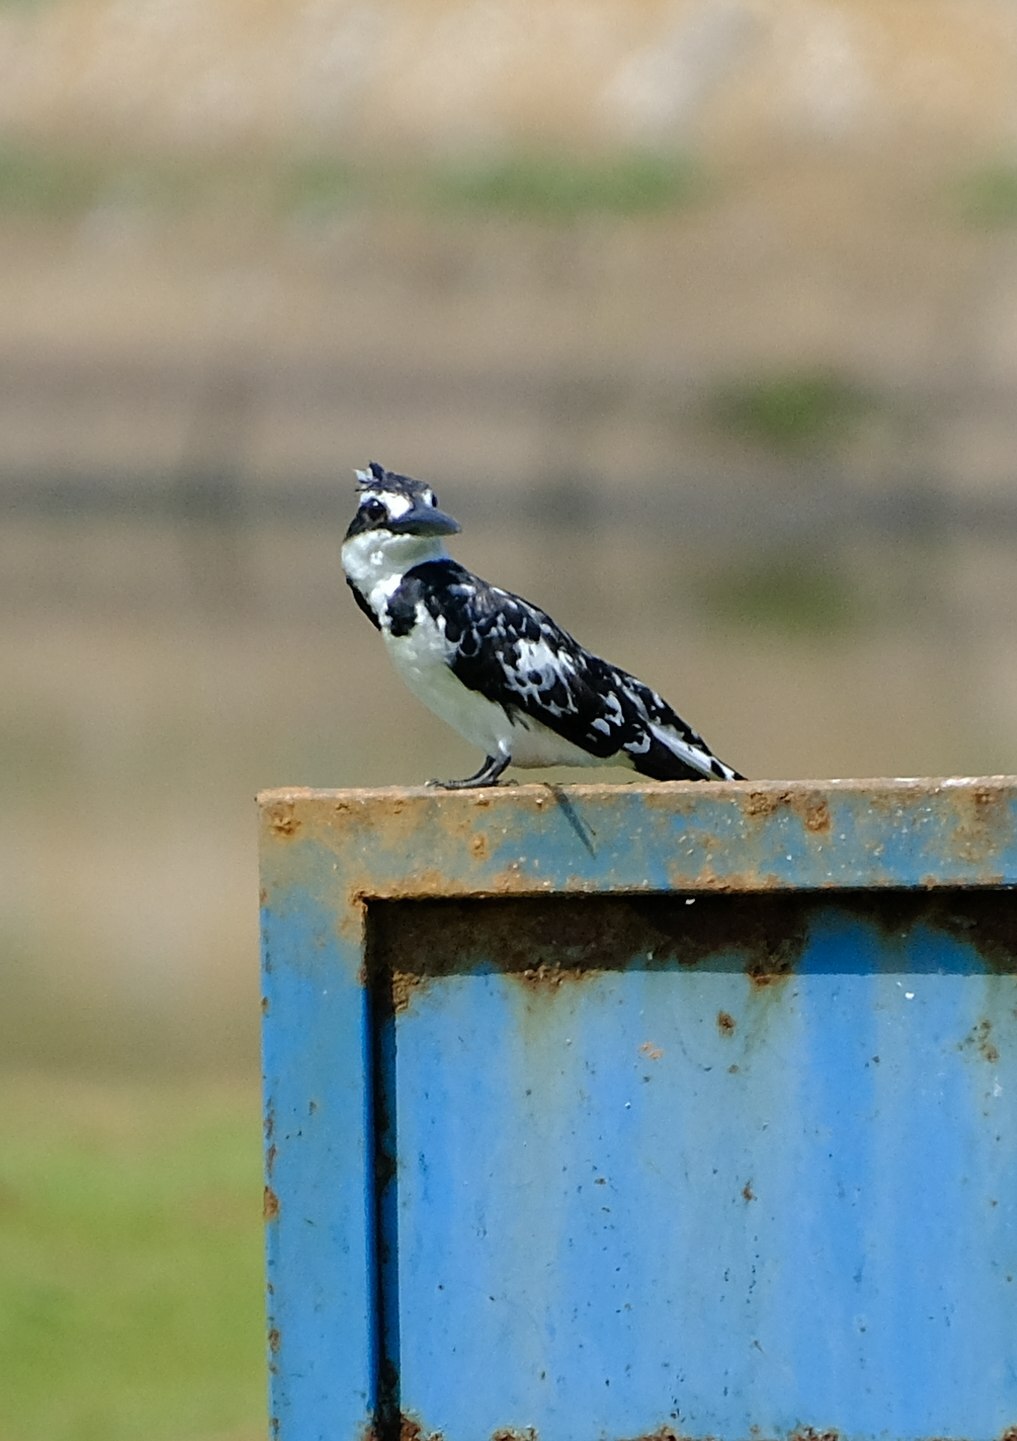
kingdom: Animalia
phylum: Chordata
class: Aves
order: Coraciiformes
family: Alcedinidae
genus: Ceryle
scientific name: Ceryle rudis
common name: Pied kingfisher
